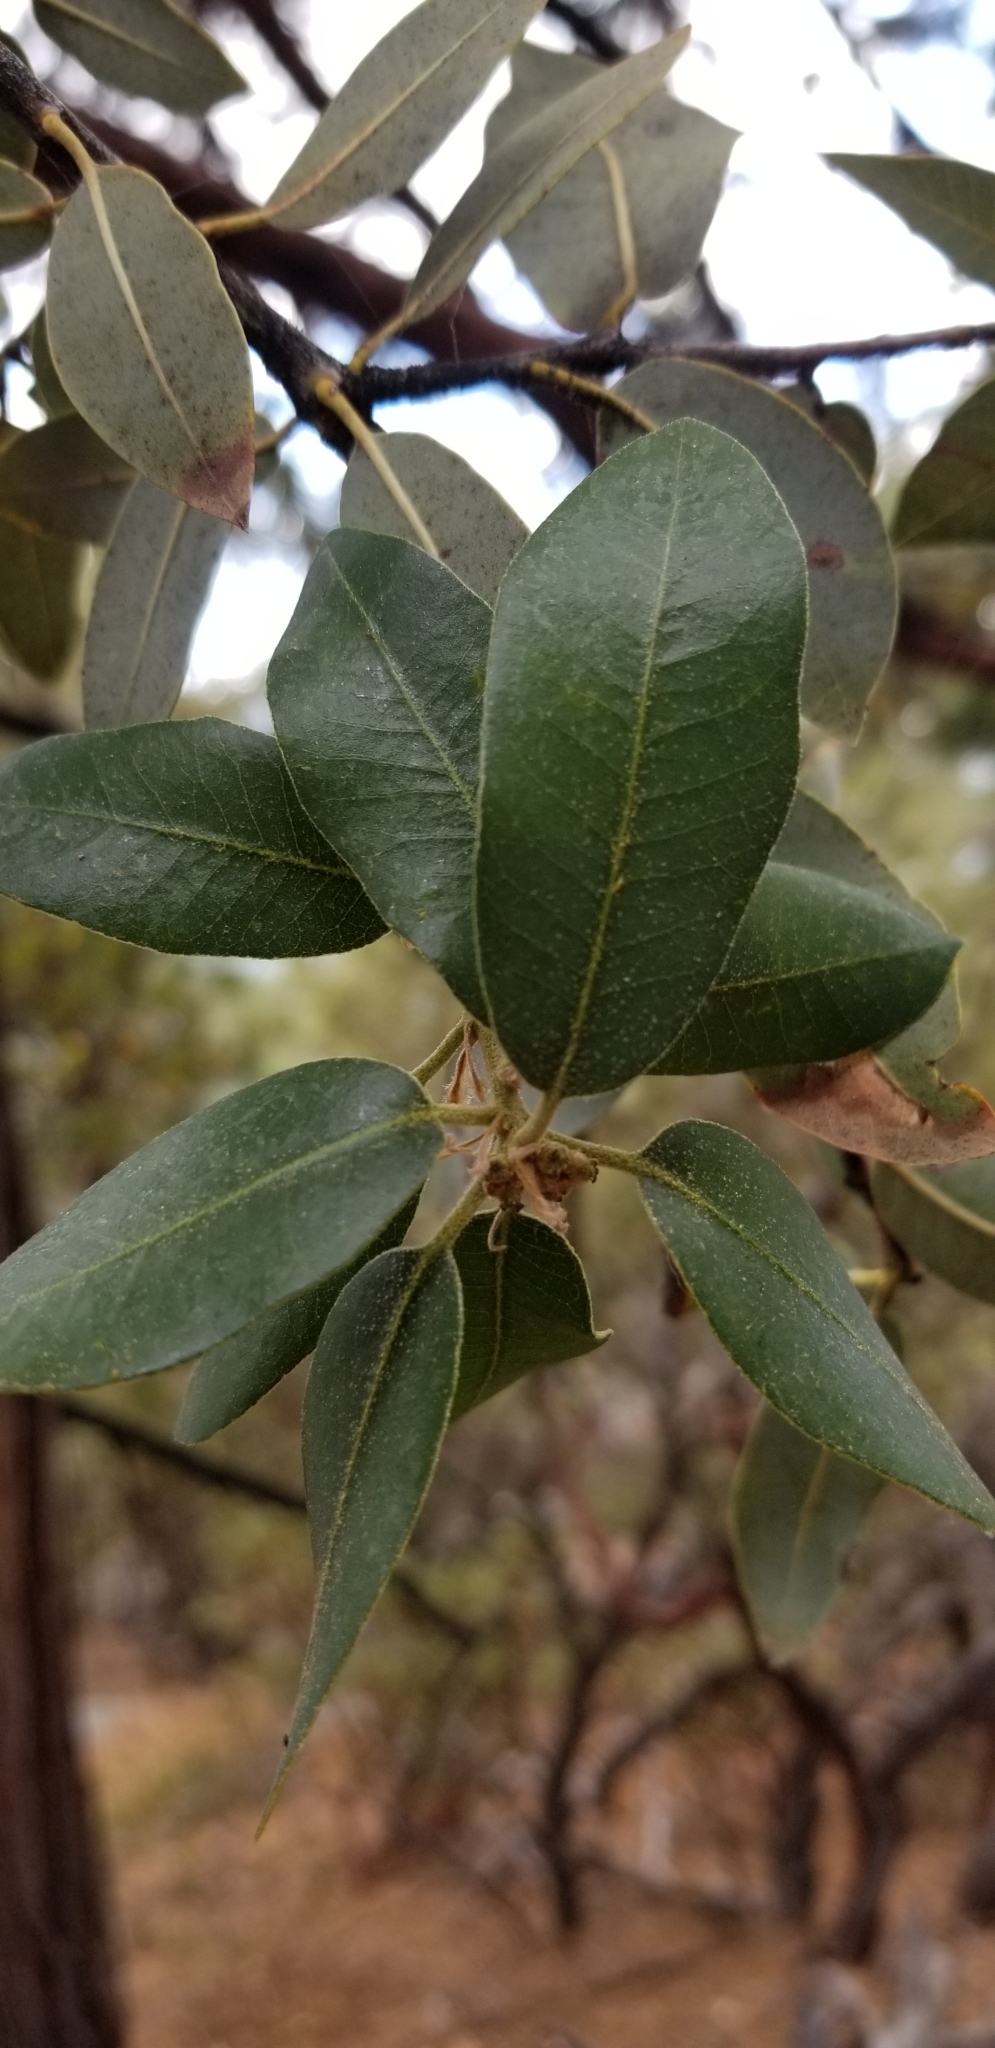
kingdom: Plantae
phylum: Tracheophyta
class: Magnoliopsida
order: Fagales
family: Fagaceae
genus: Quercus
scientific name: Quercus chrysolepis
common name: Canyon live oak
